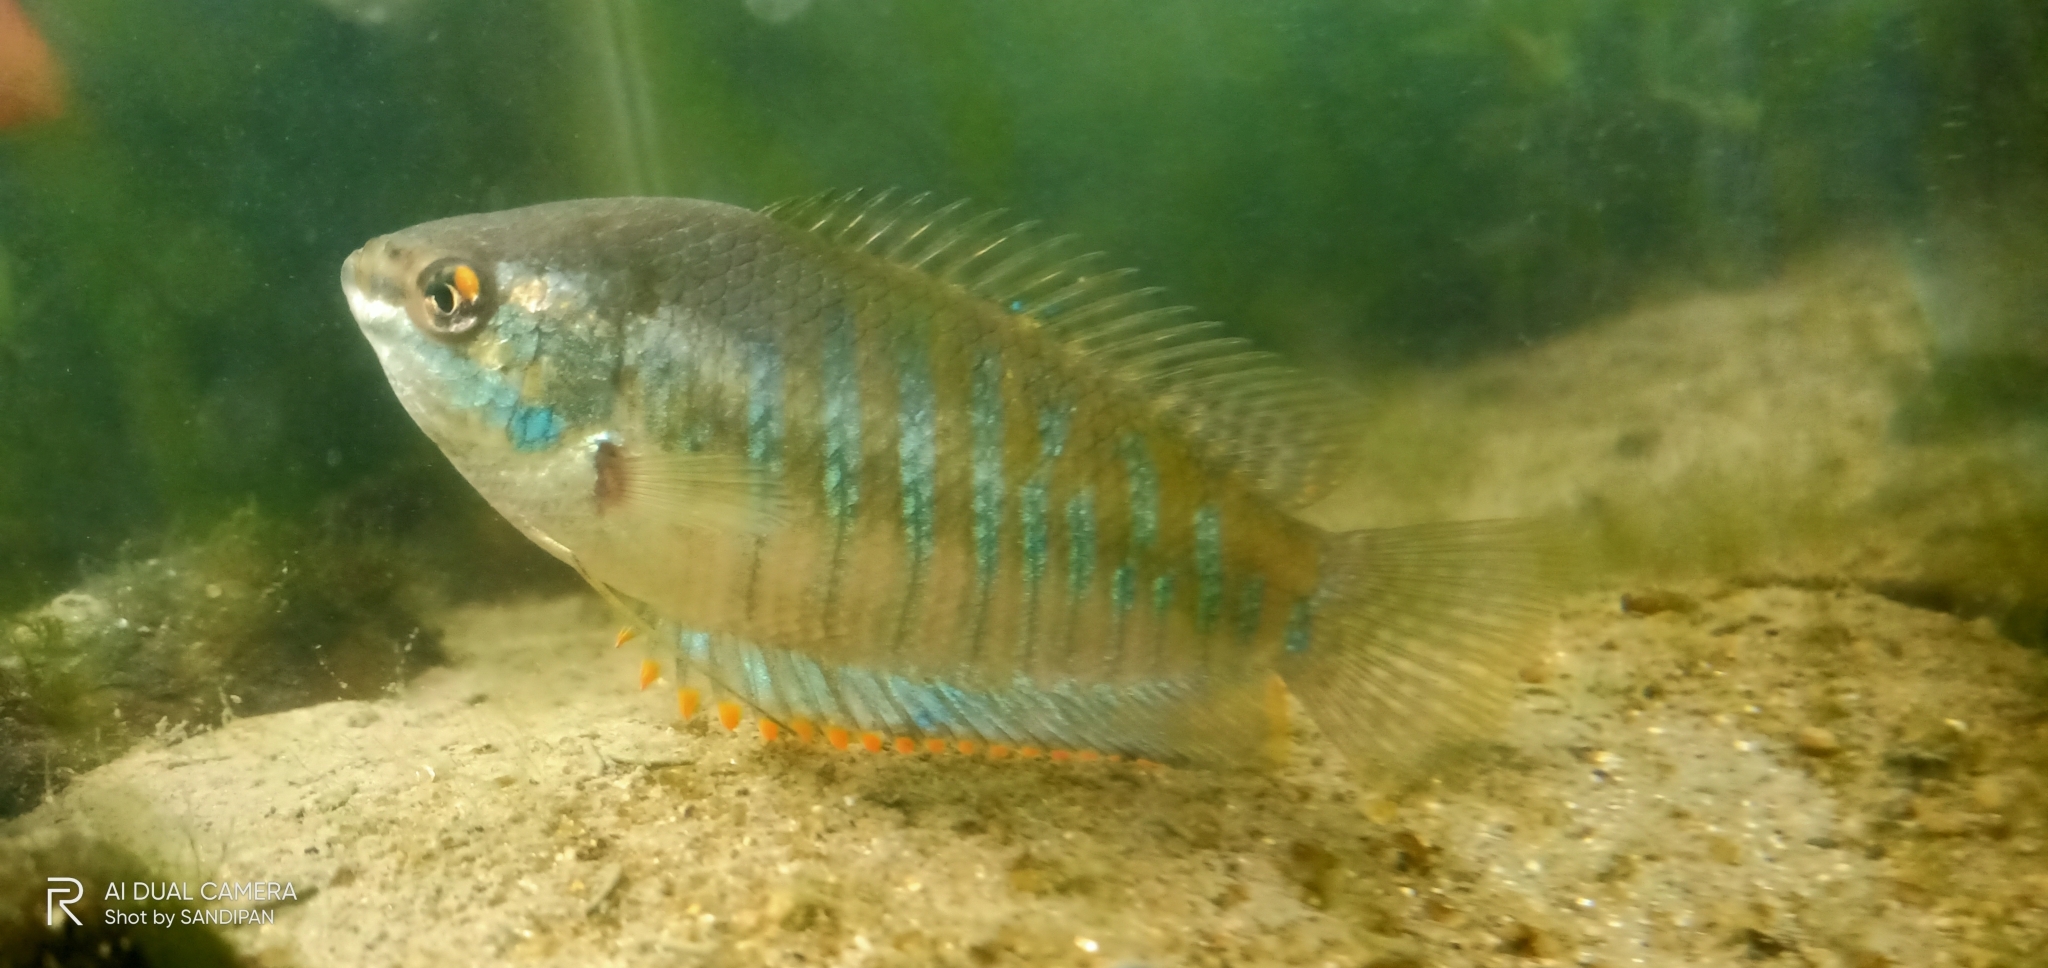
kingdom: Animalia
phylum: Chordata
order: Perciformes
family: Osphronemidae
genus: Trichogaster
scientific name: Trichogaster fasciata
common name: Banded gourami
